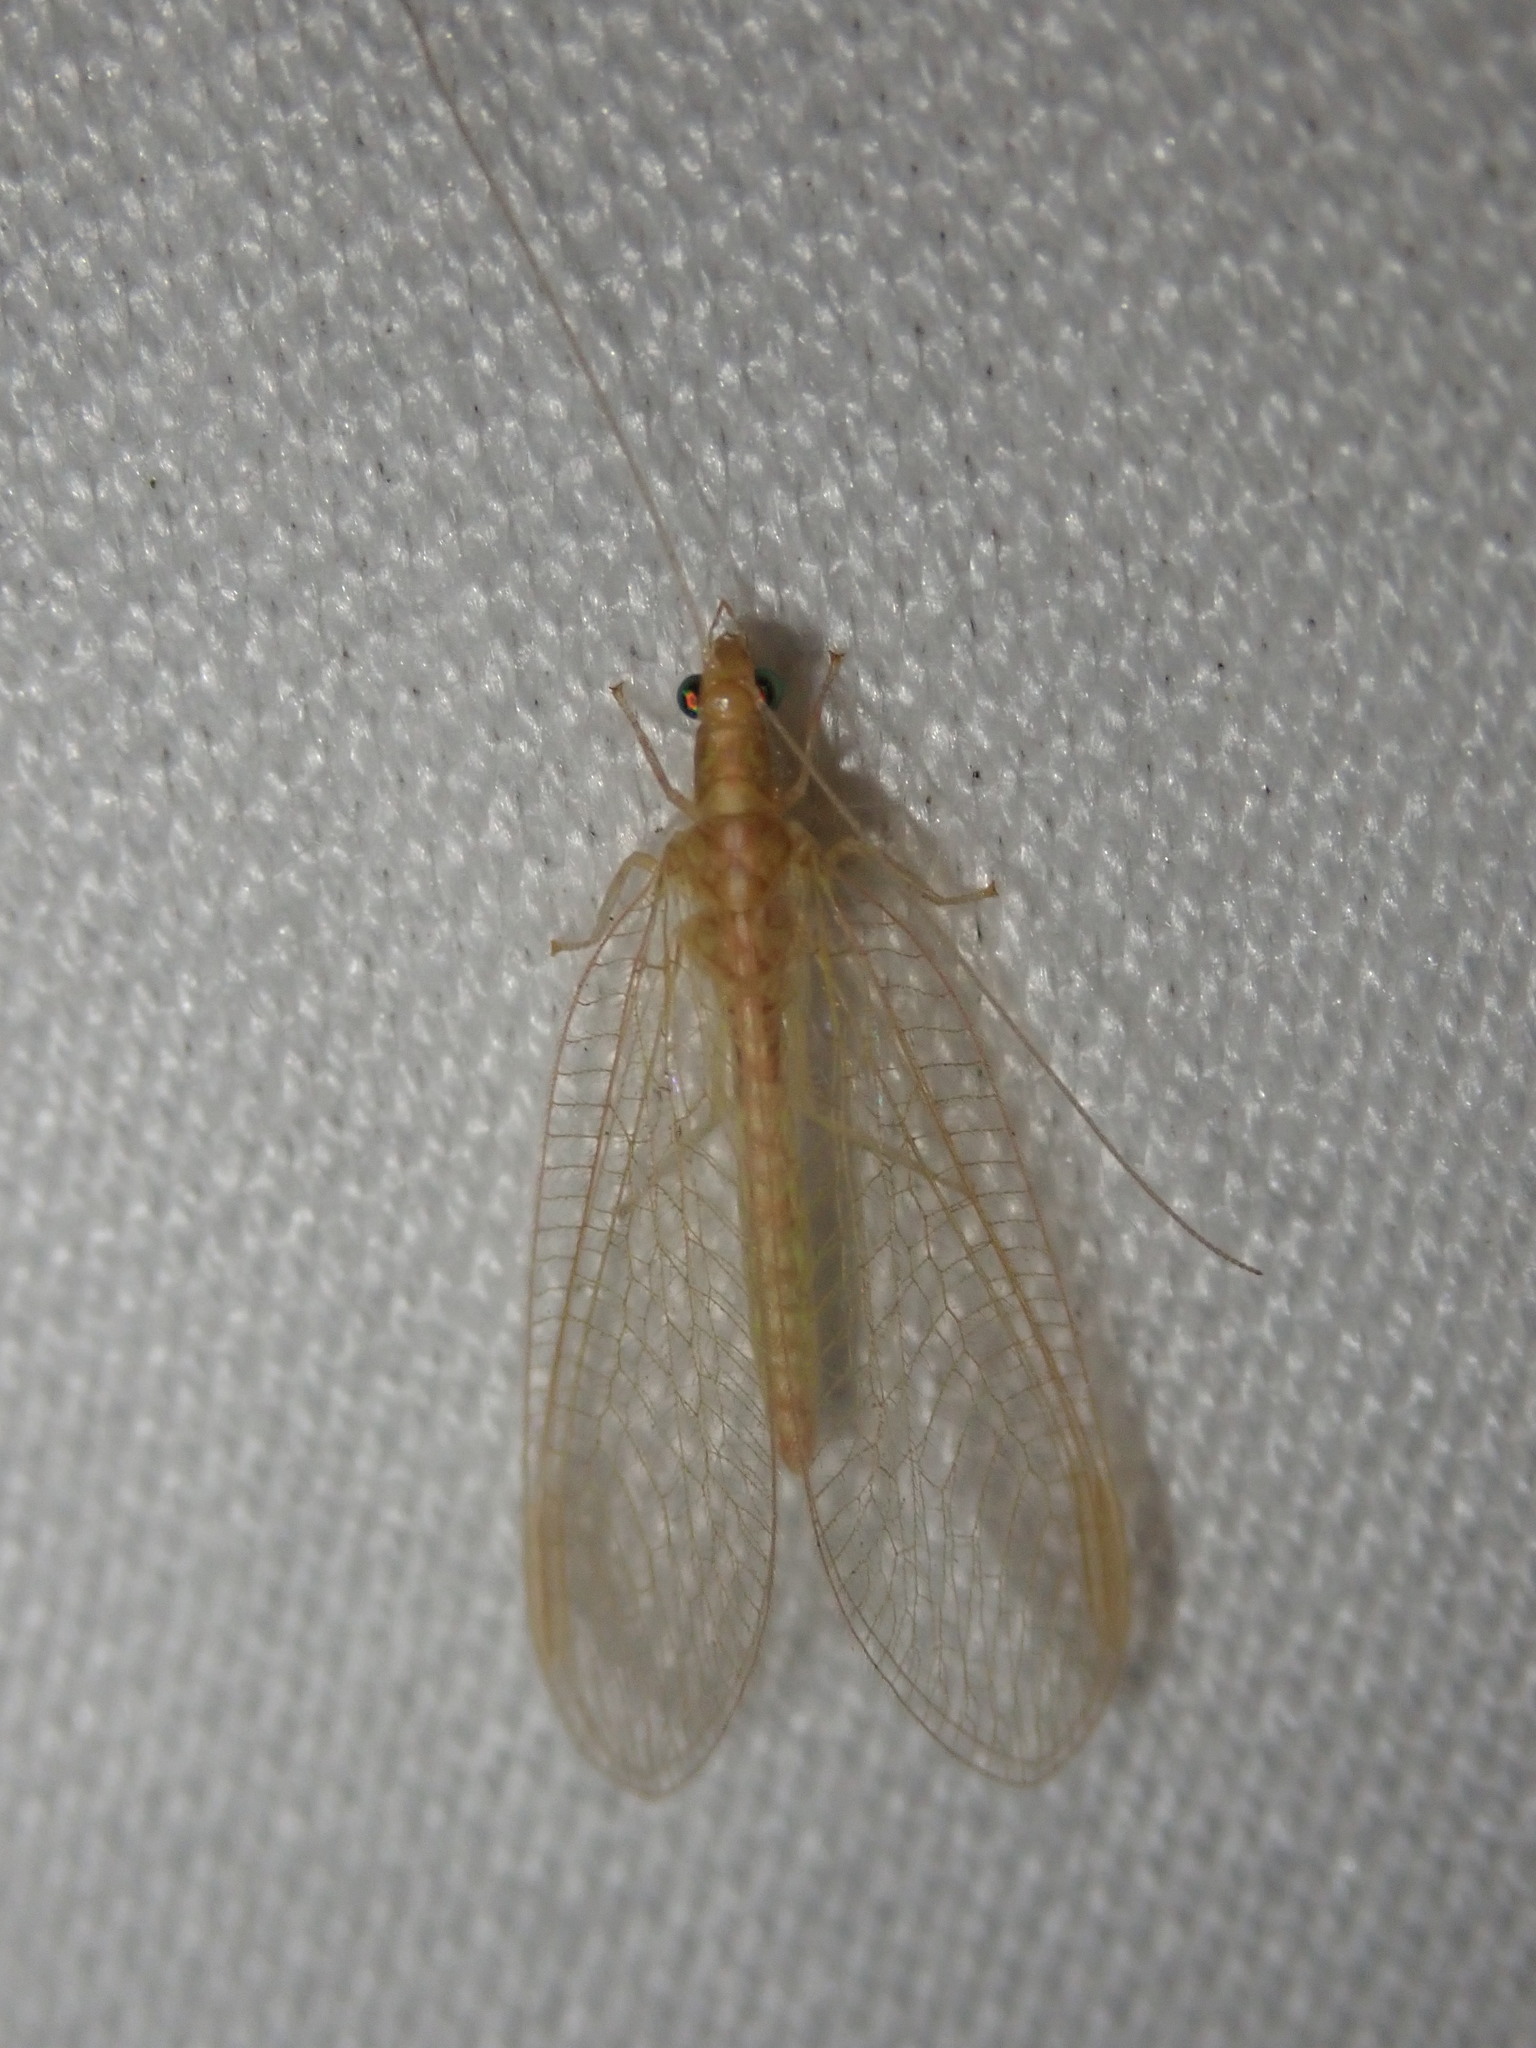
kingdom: Animalia
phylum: Arthropoda
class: Insecta
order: Neuroptera
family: Chrysopidae
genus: Chrysoperla
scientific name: Chrysoperla
